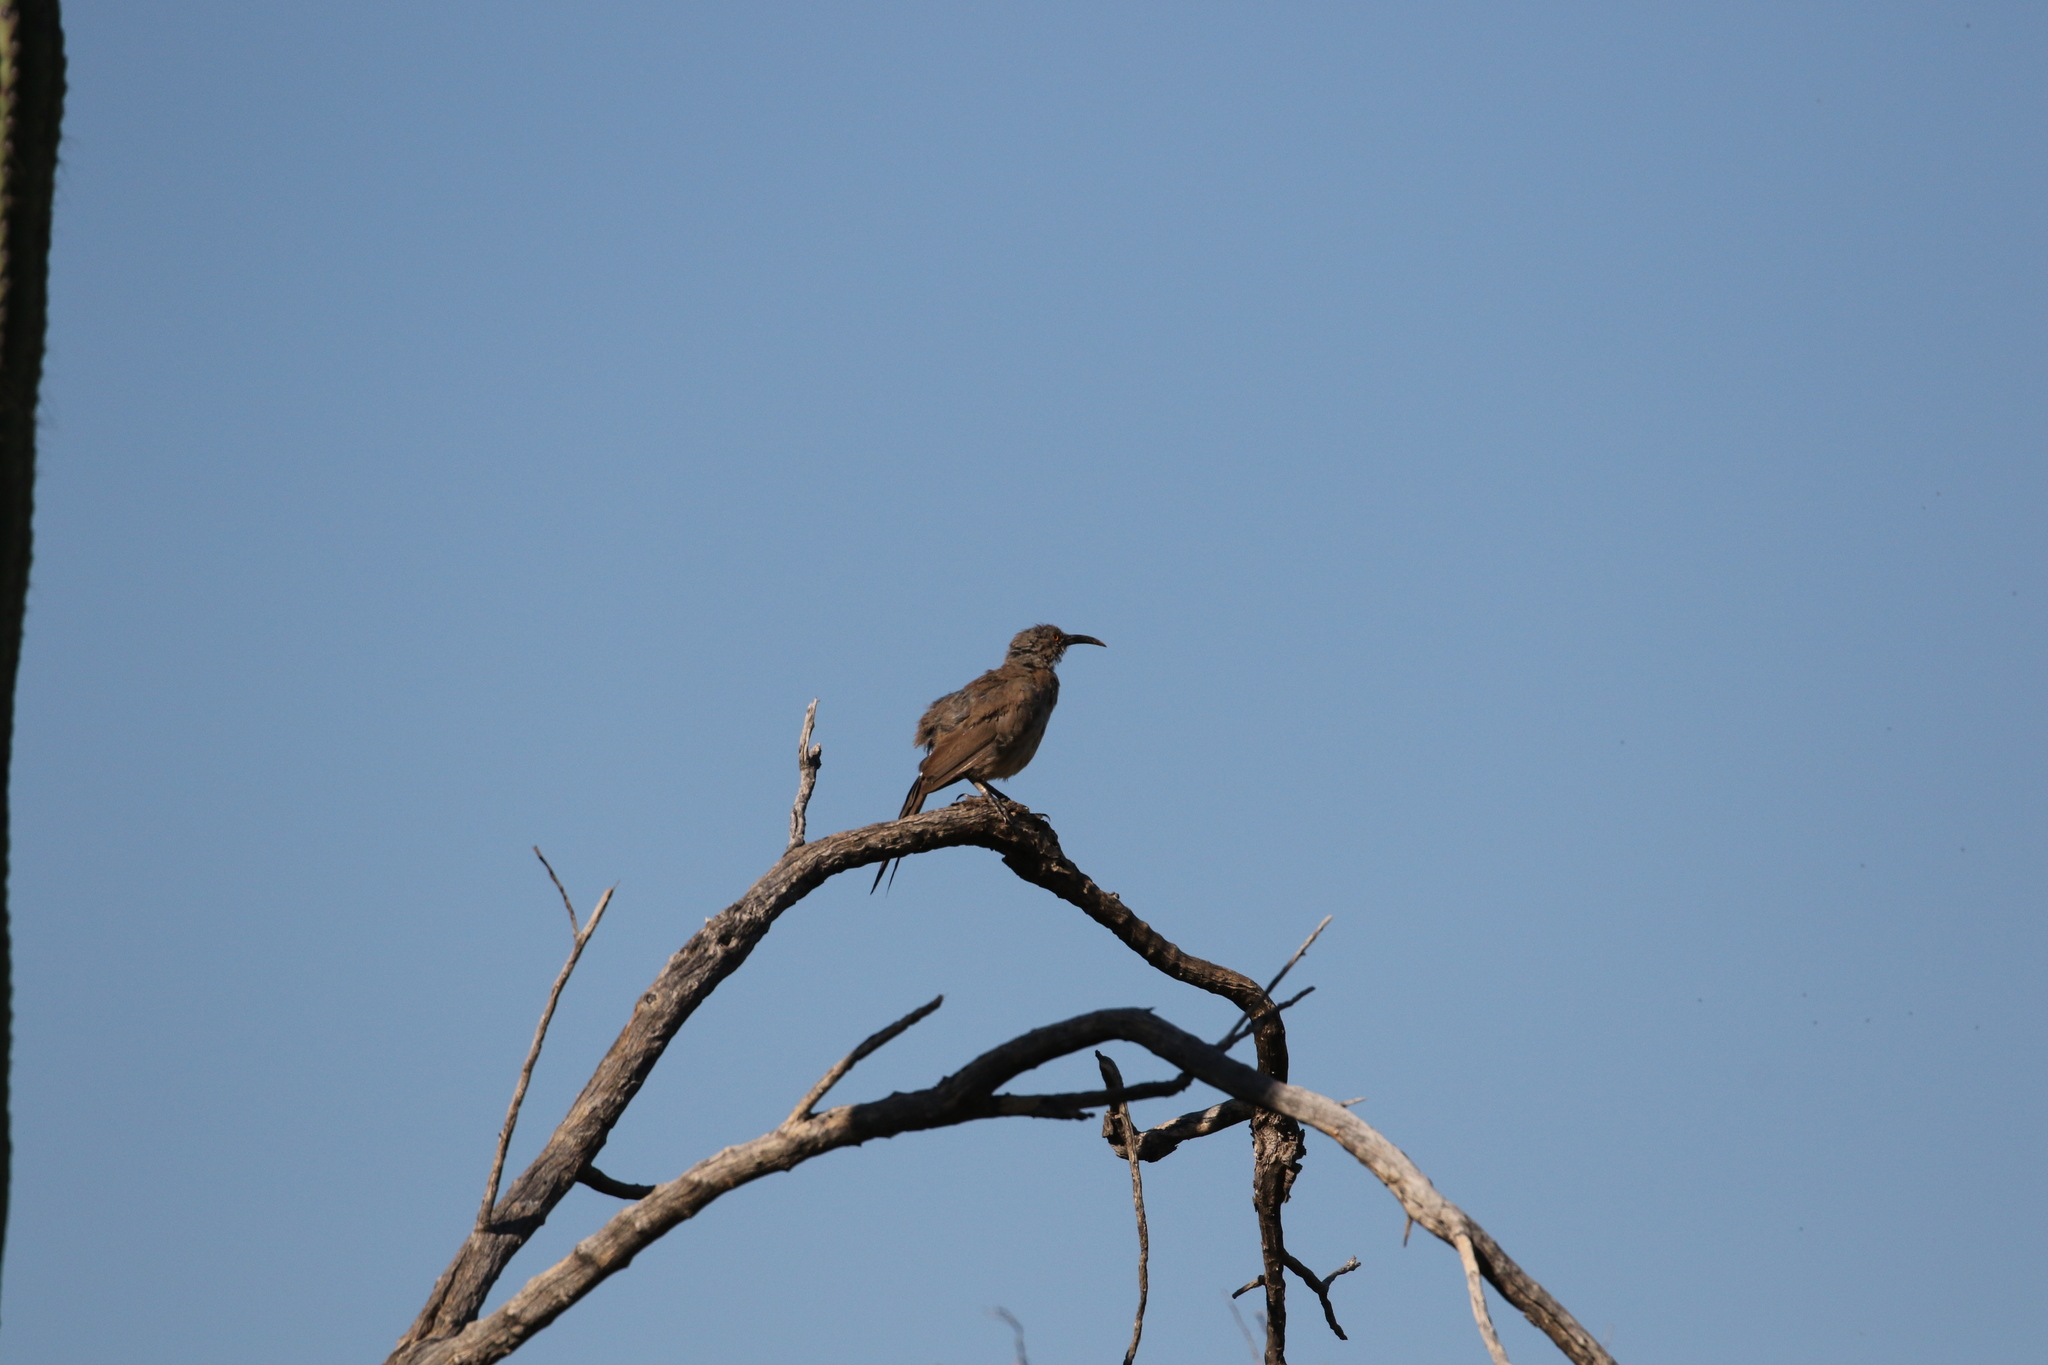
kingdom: Animalia
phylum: Chordata
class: Aves
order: Passeriformes
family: Mimidae
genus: Toxostoma
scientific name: Toxostoma curvirostre
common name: Curve-billed thrasher
